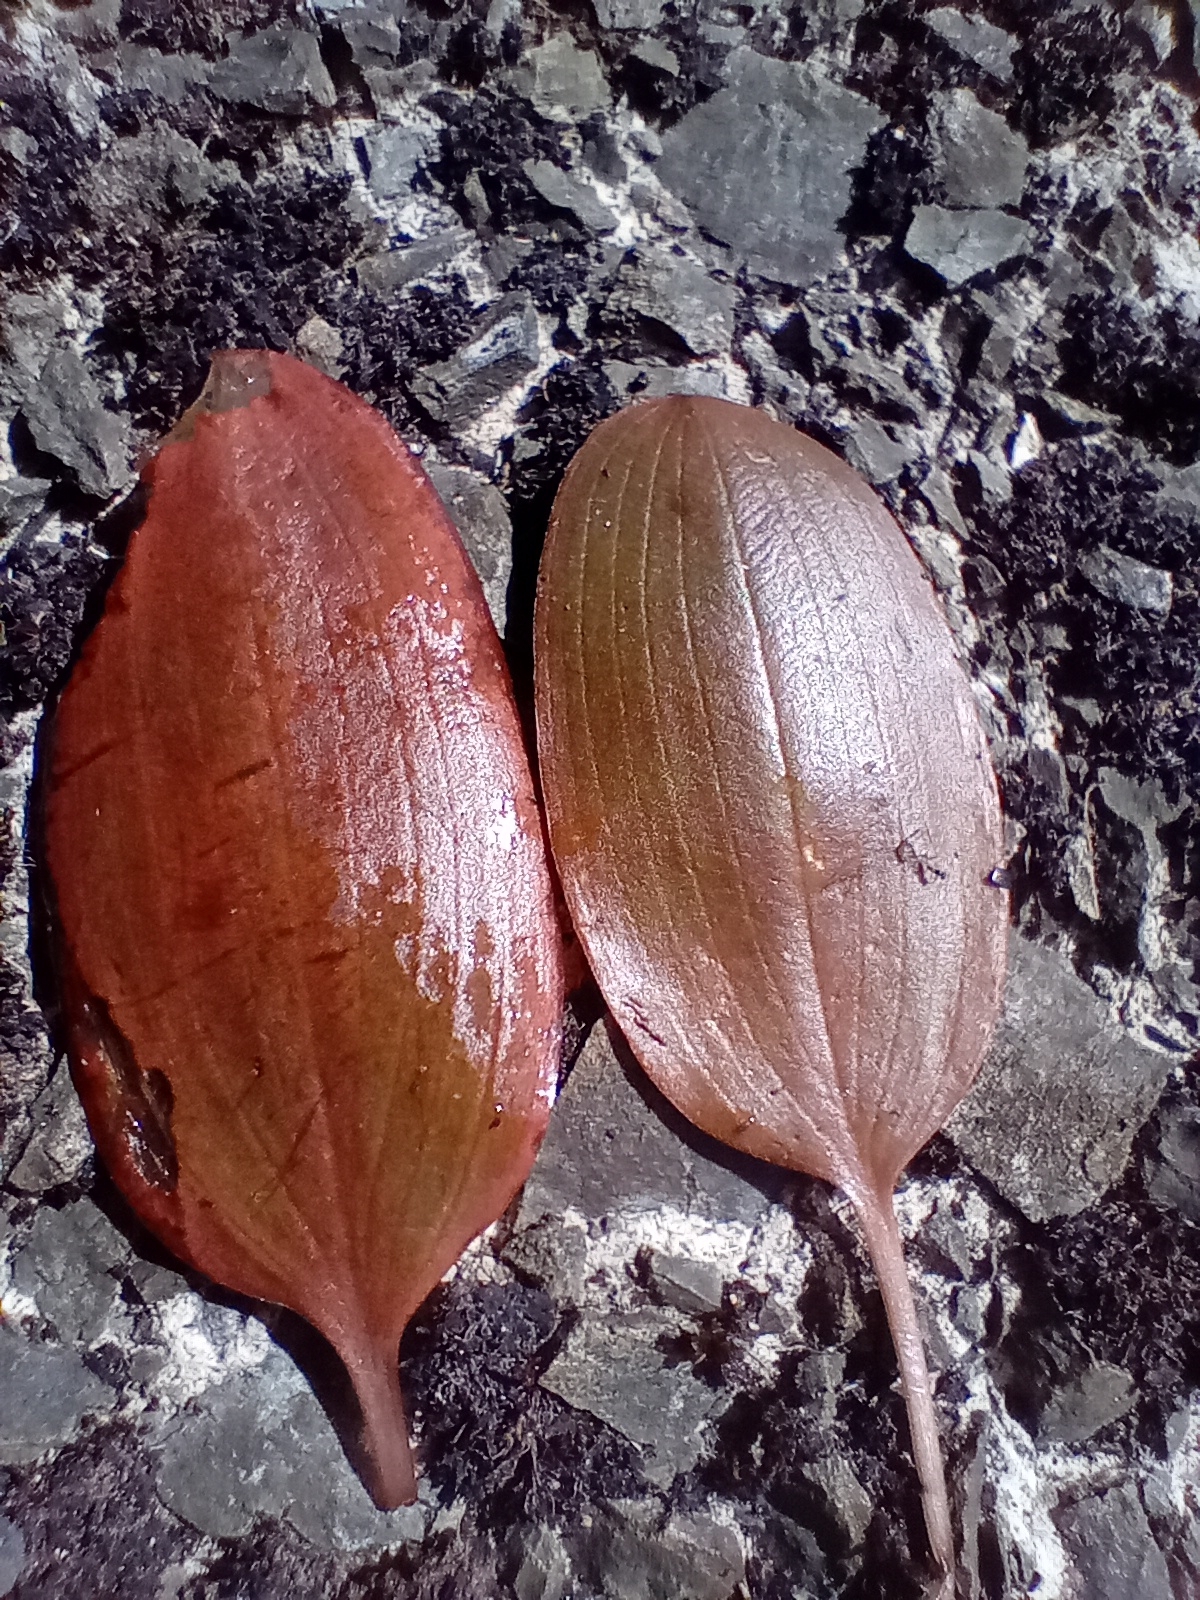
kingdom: Plantae
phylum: Tracheophyta
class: Liliopsida
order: Alismatales
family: Potamogetonaceae
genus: Potamogeton
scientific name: Potamogeton cheesemanii
